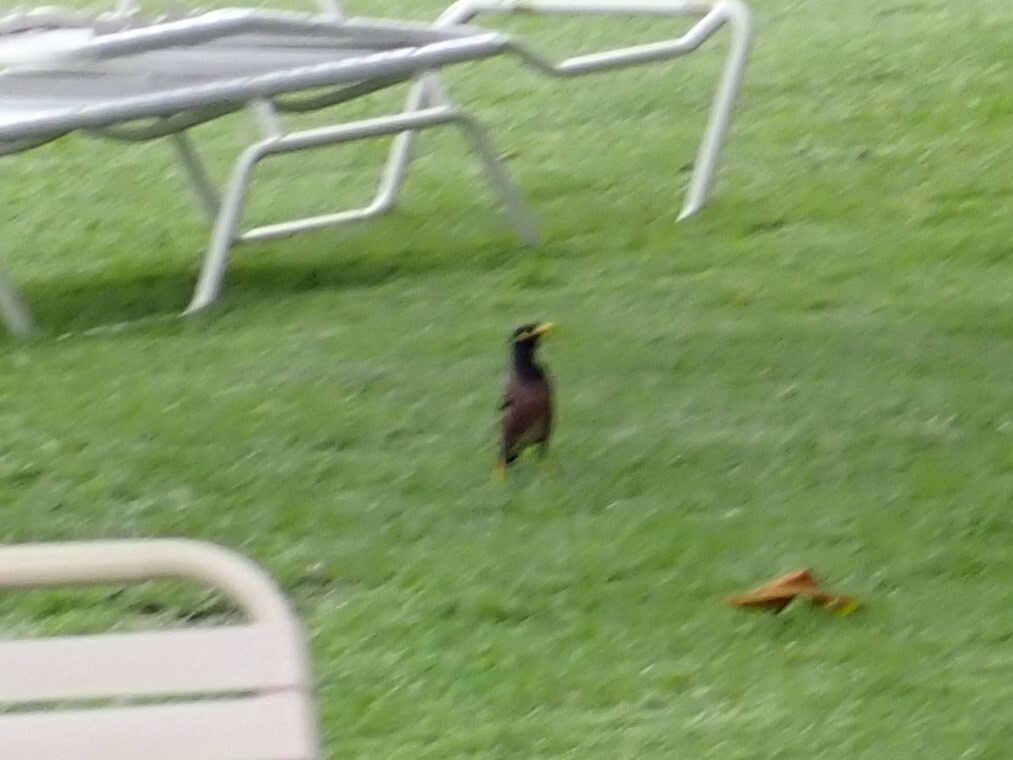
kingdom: Animalia
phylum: Chordata
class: Aves
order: Passeriformes
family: Sturnidae
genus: Acridotheres
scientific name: Acridotheres tristis
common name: Common myna
